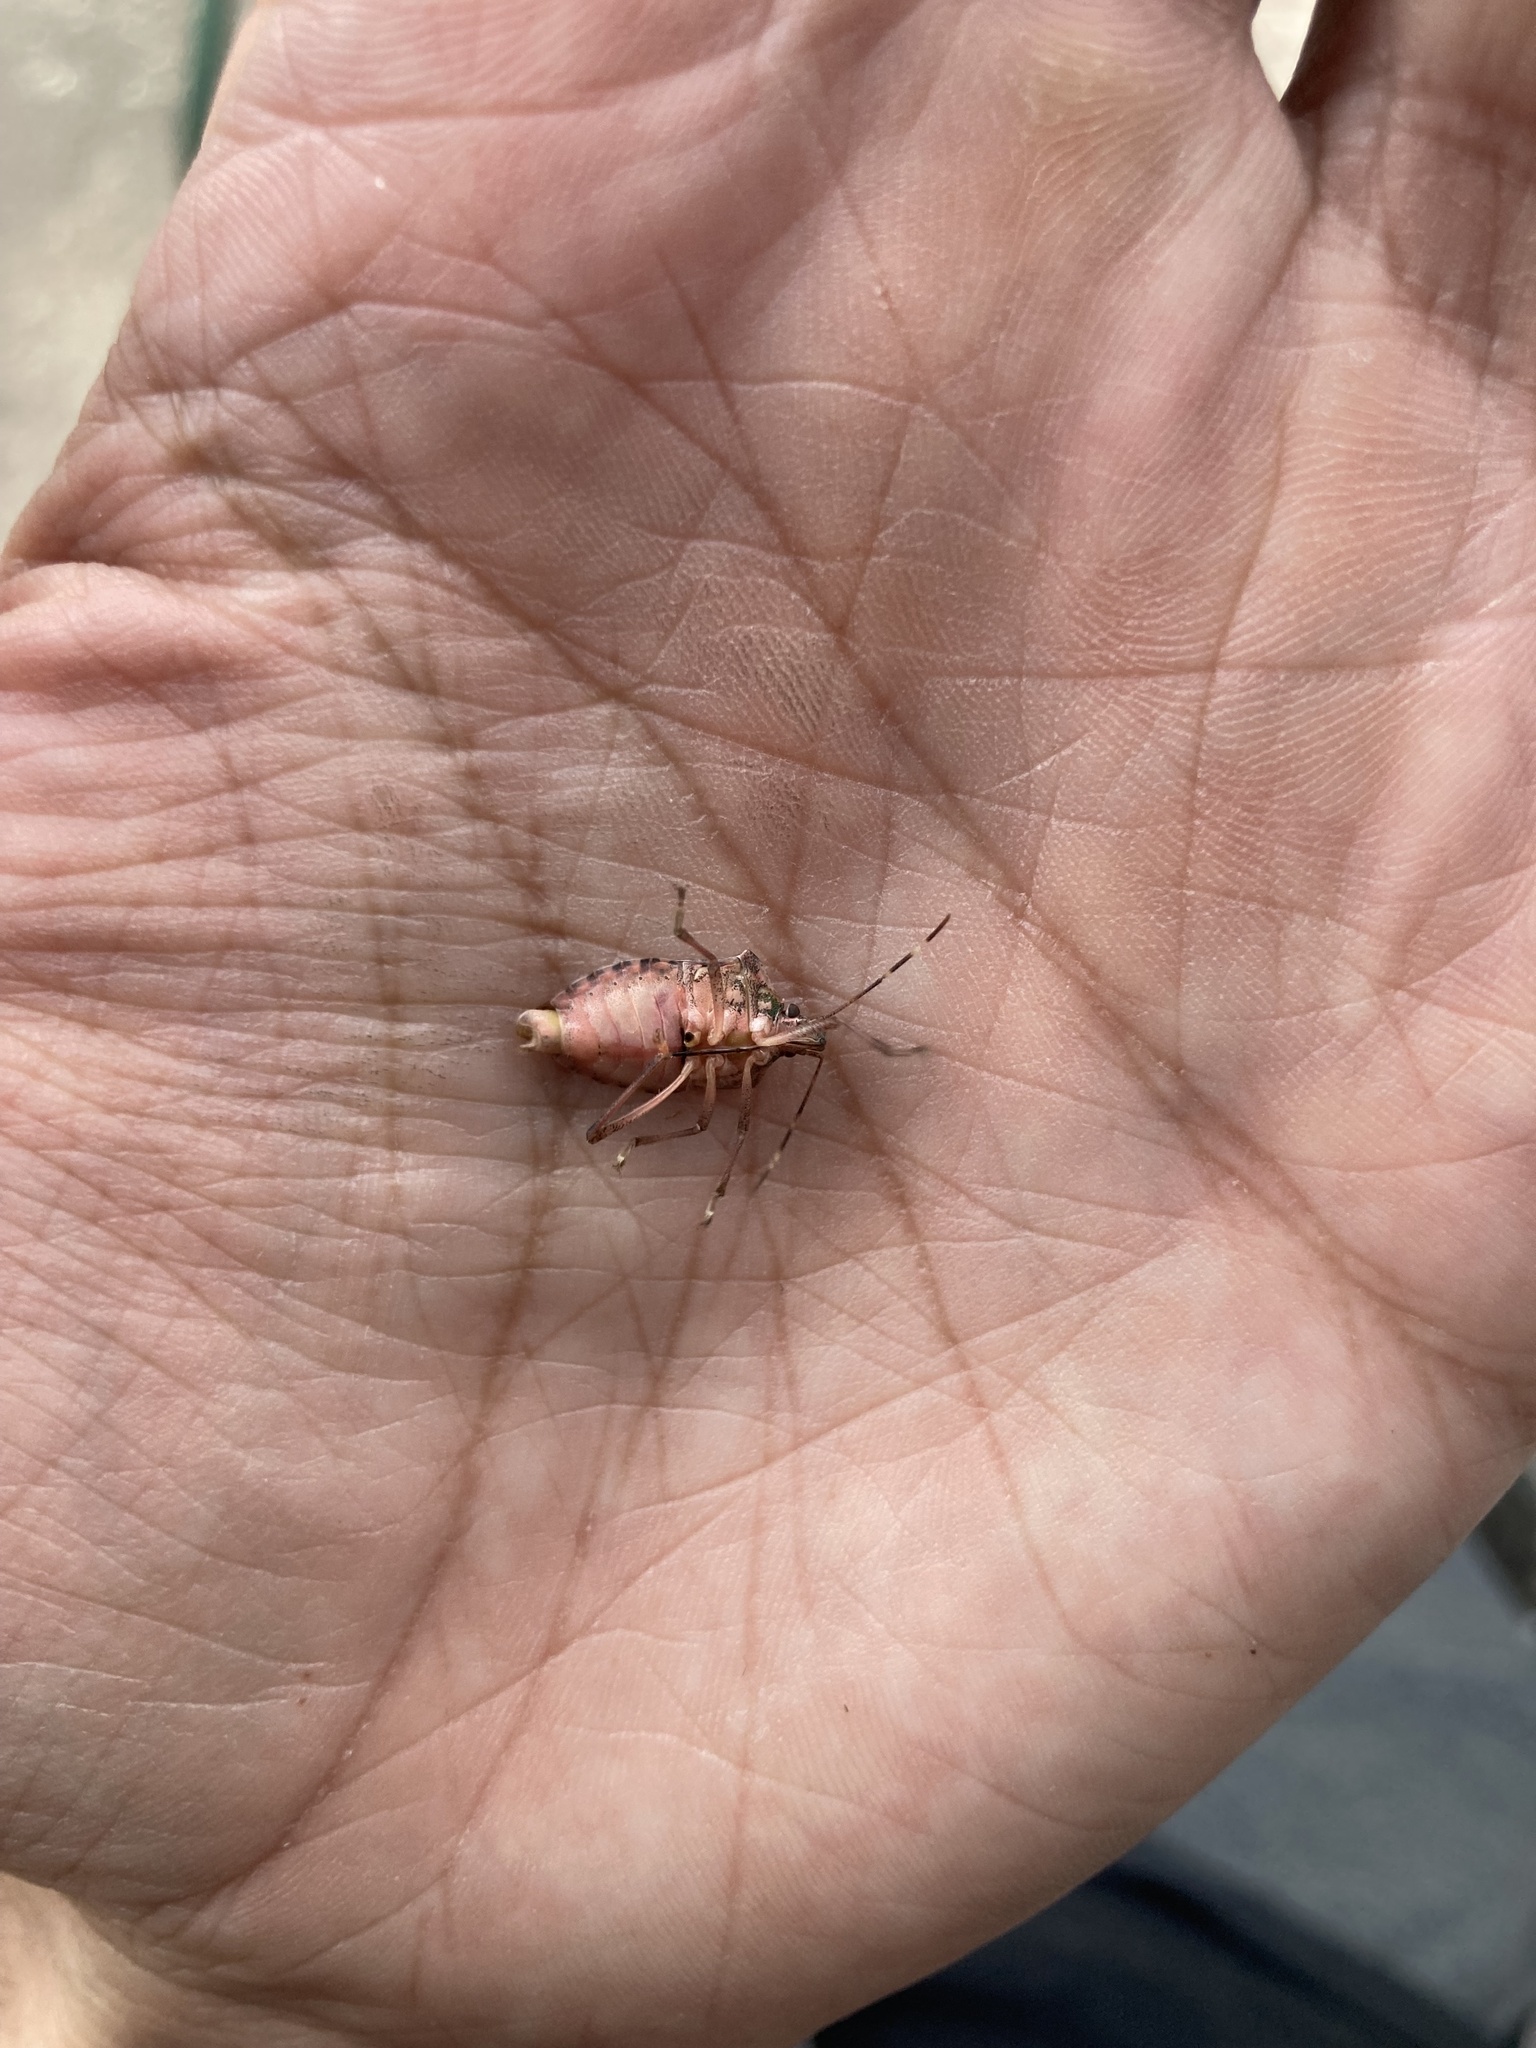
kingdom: Animalia
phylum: Arthropoda
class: Insecta
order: Hemiptera
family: Pentatomidae
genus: Halyomorpha
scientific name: Halyomorpha halys
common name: Brown marmorated stink bug
